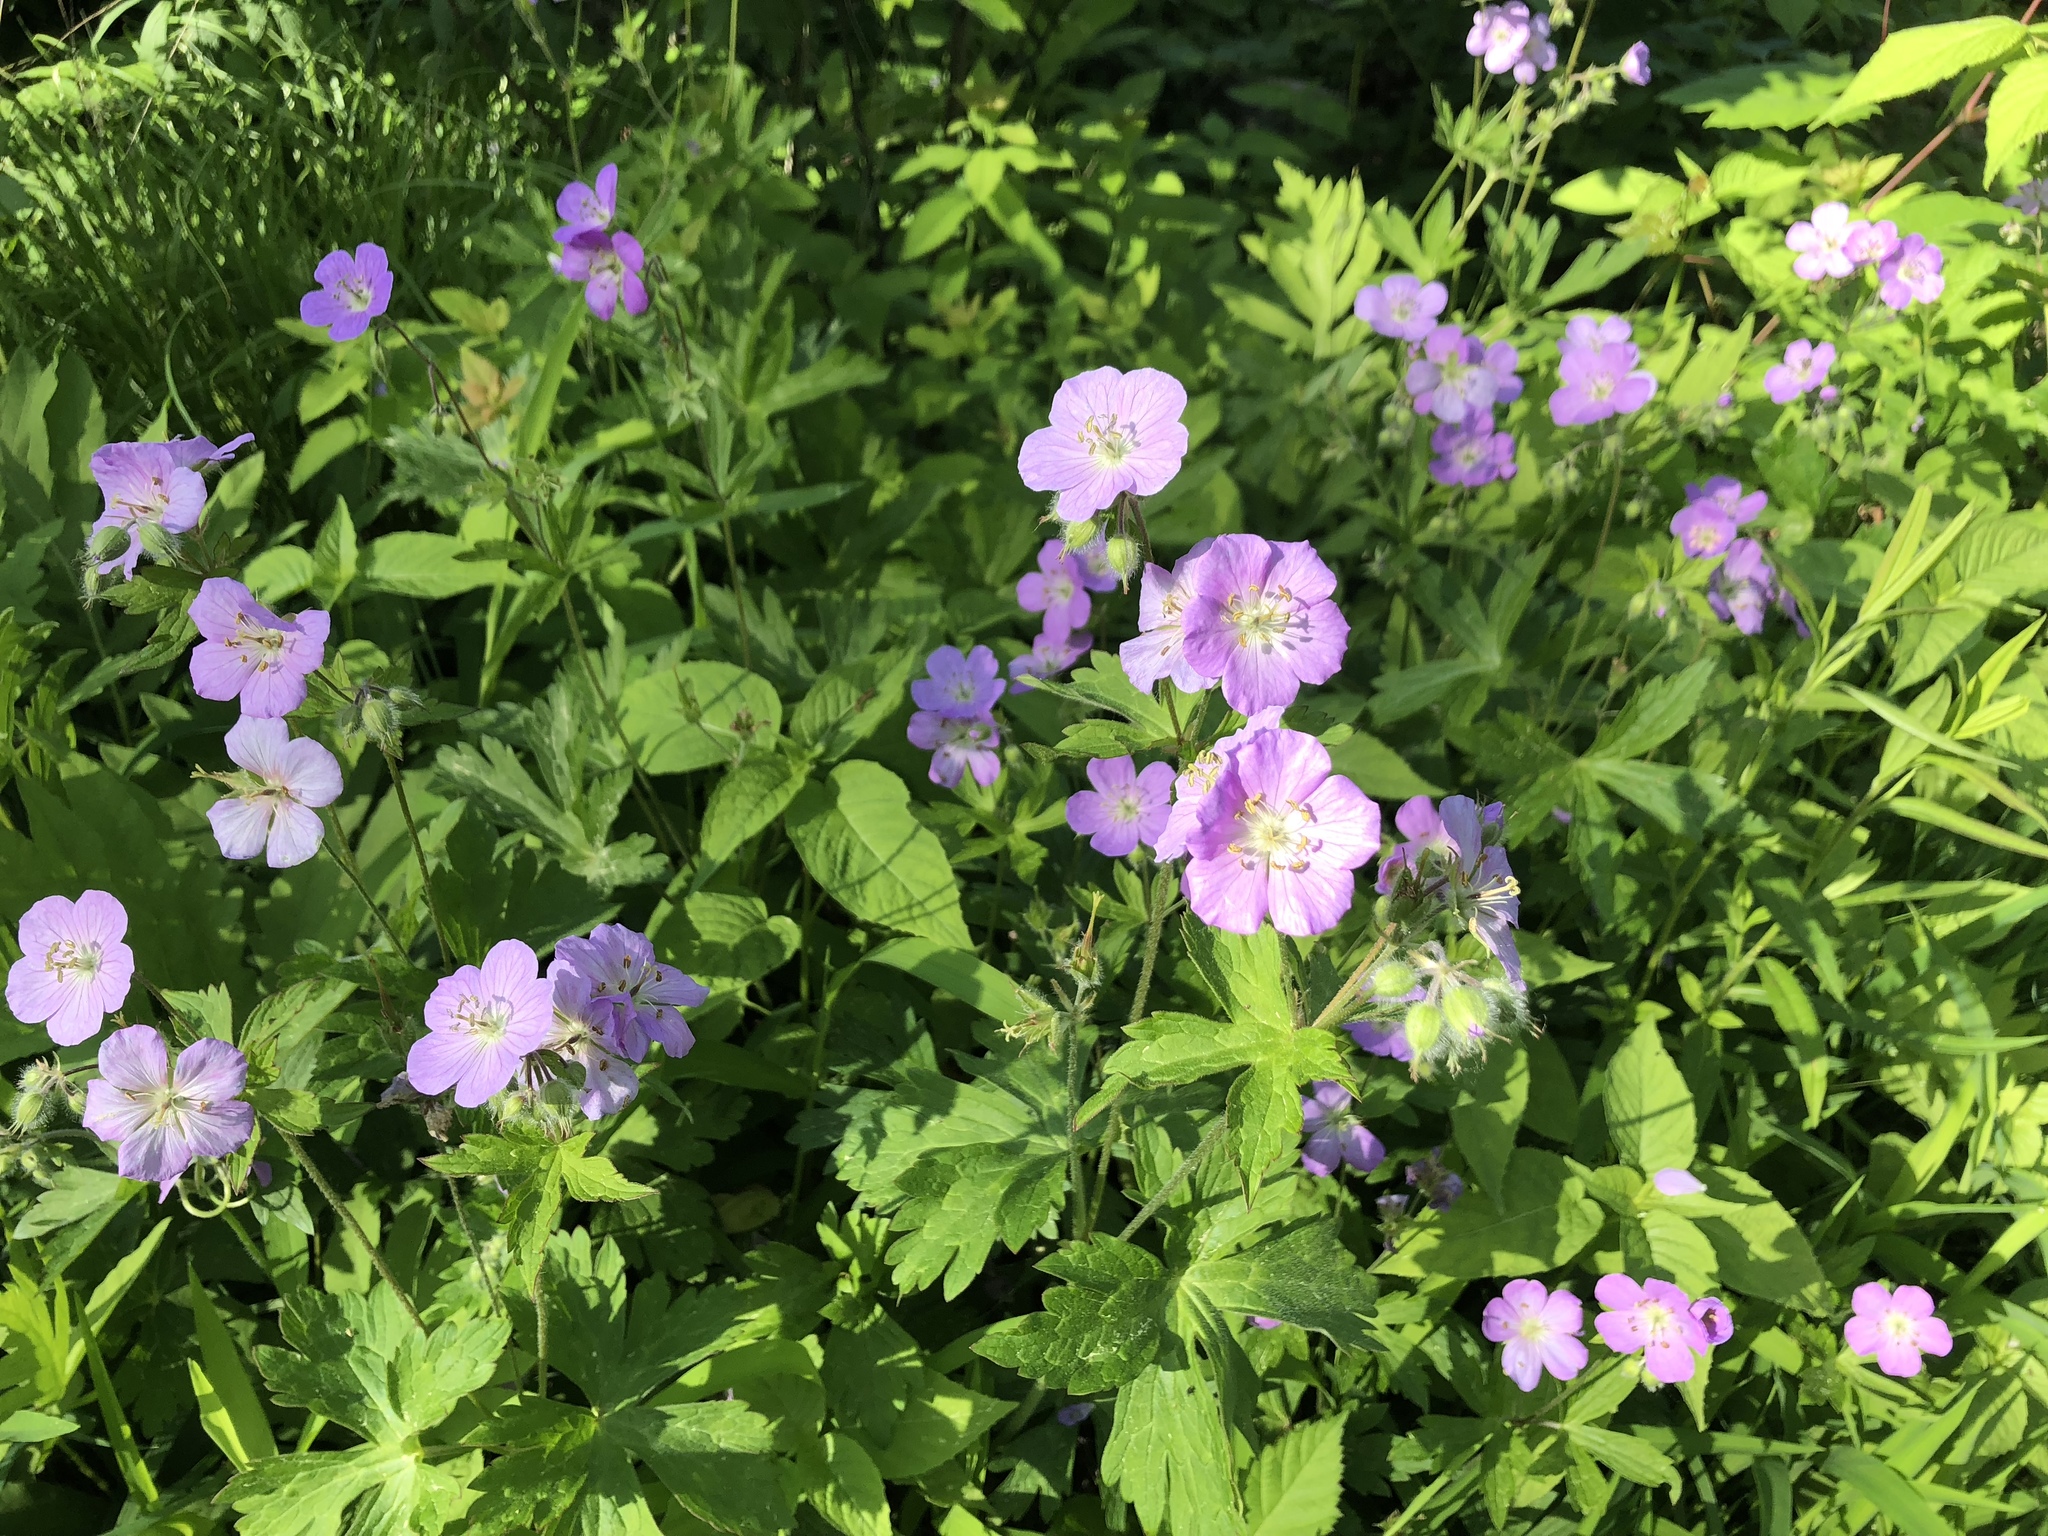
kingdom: Plantae
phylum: Tracheophyta
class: Magnoliopsida
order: Geraniales
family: Geraniaceae
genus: Geranium
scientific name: Geranium maculatum
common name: Spotted geranium
